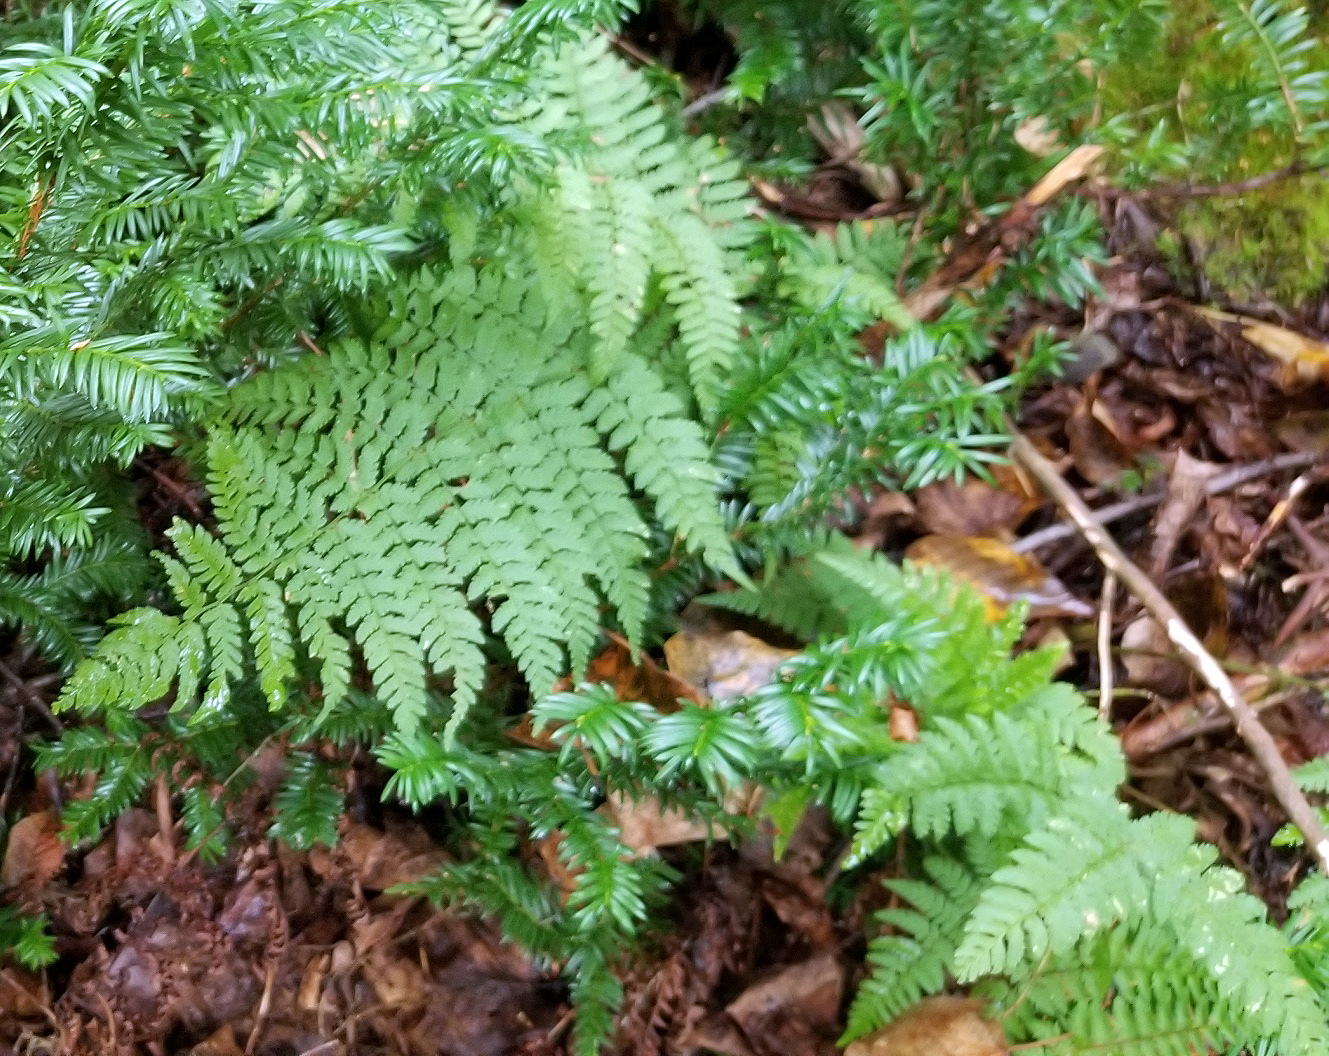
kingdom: Plantae
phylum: Tracheophyta
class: Polypodiopsida
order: Polypodiales
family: Dryopteridaceae
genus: Dryopteris
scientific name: Dryopteris
